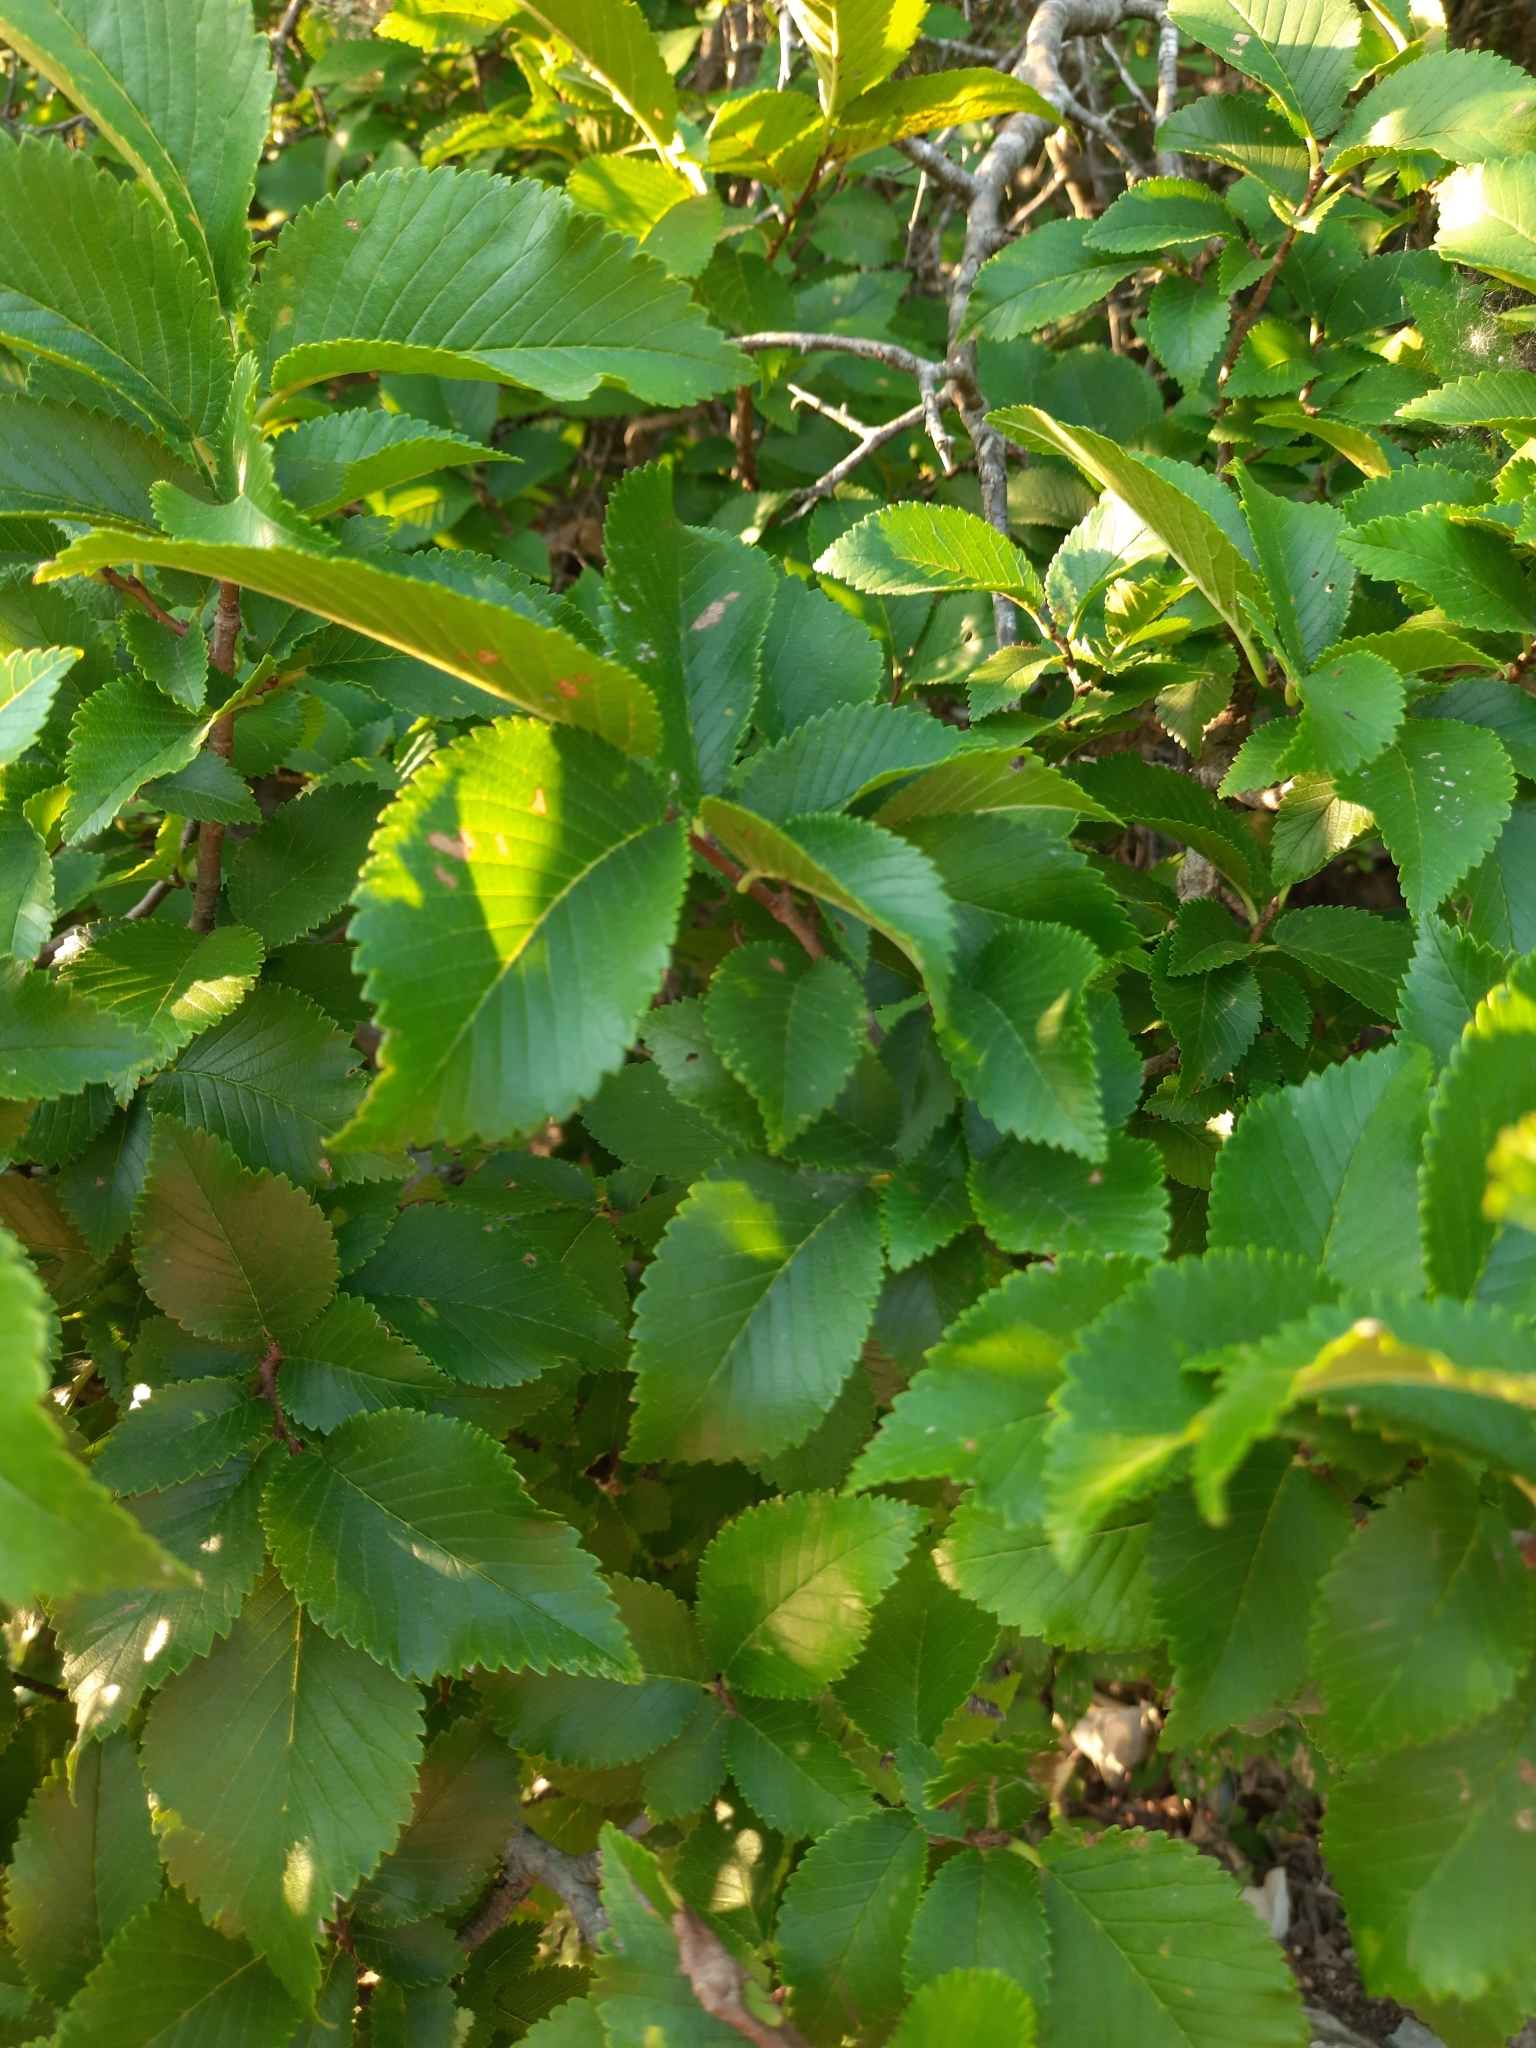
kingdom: Plantae
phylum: Tracheophyta
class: Magnoliopsida
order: Rosales
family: Ulmaceae
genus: Ulmus
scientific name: Ulmus minor
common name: Small-leaved elm
